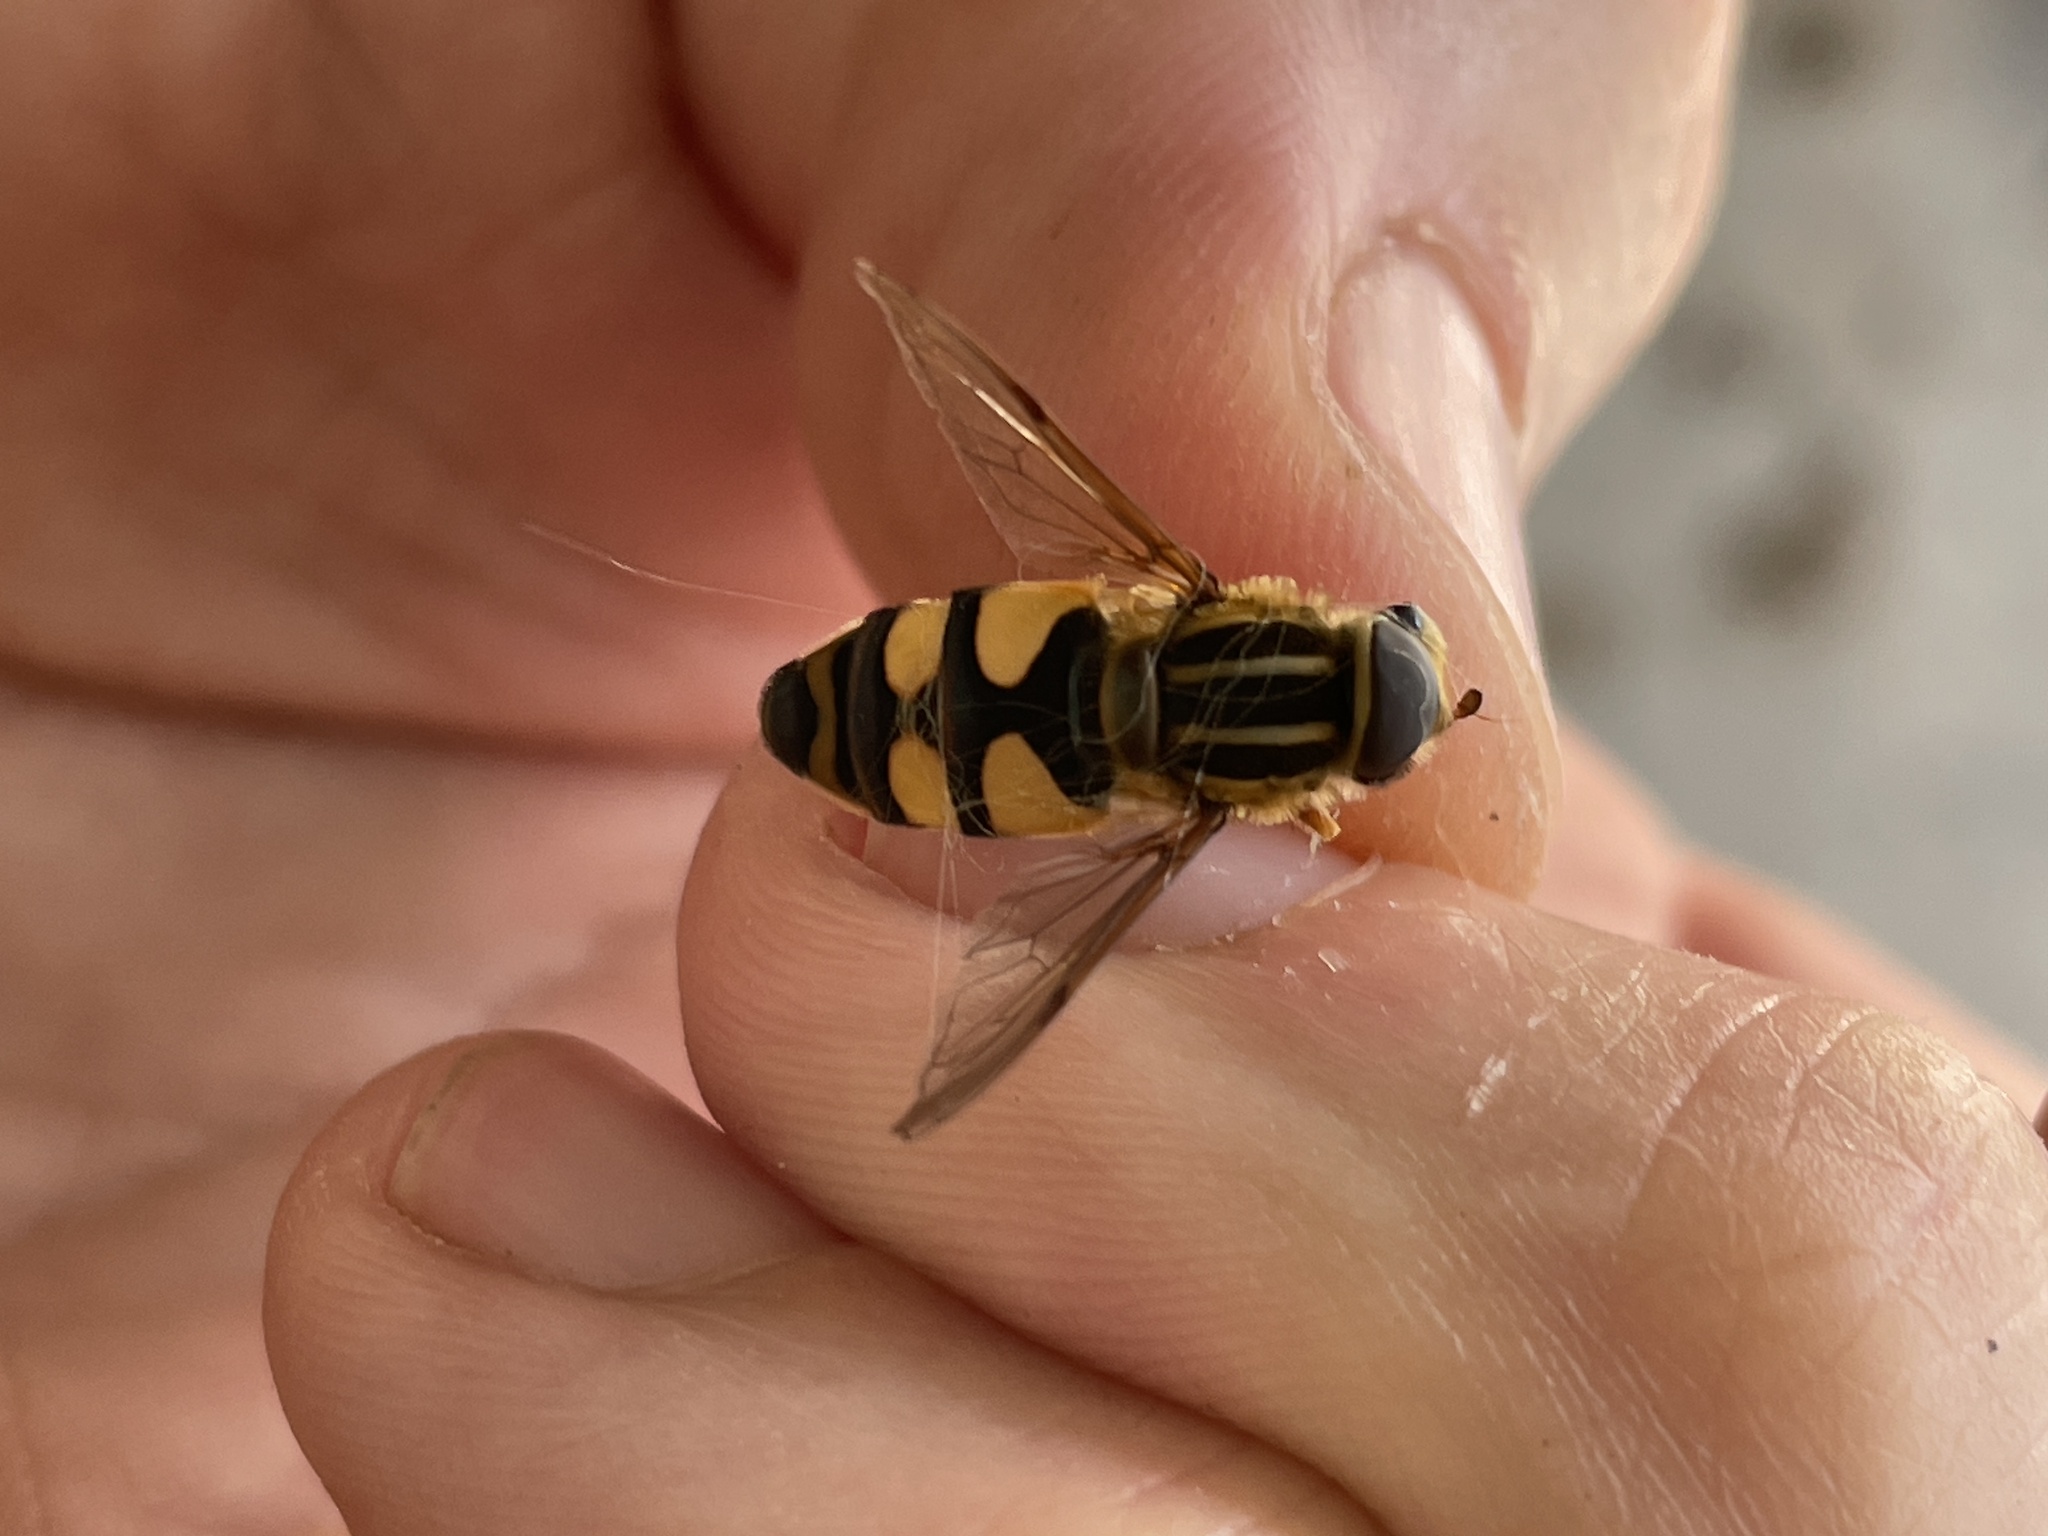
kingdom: Animalia
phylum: Arthropoda
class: Insecta
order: Diptera
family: Syrphidae
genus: Helophilus
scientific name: Helophilus fasciatus
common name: Narrow-headed marsh fly
